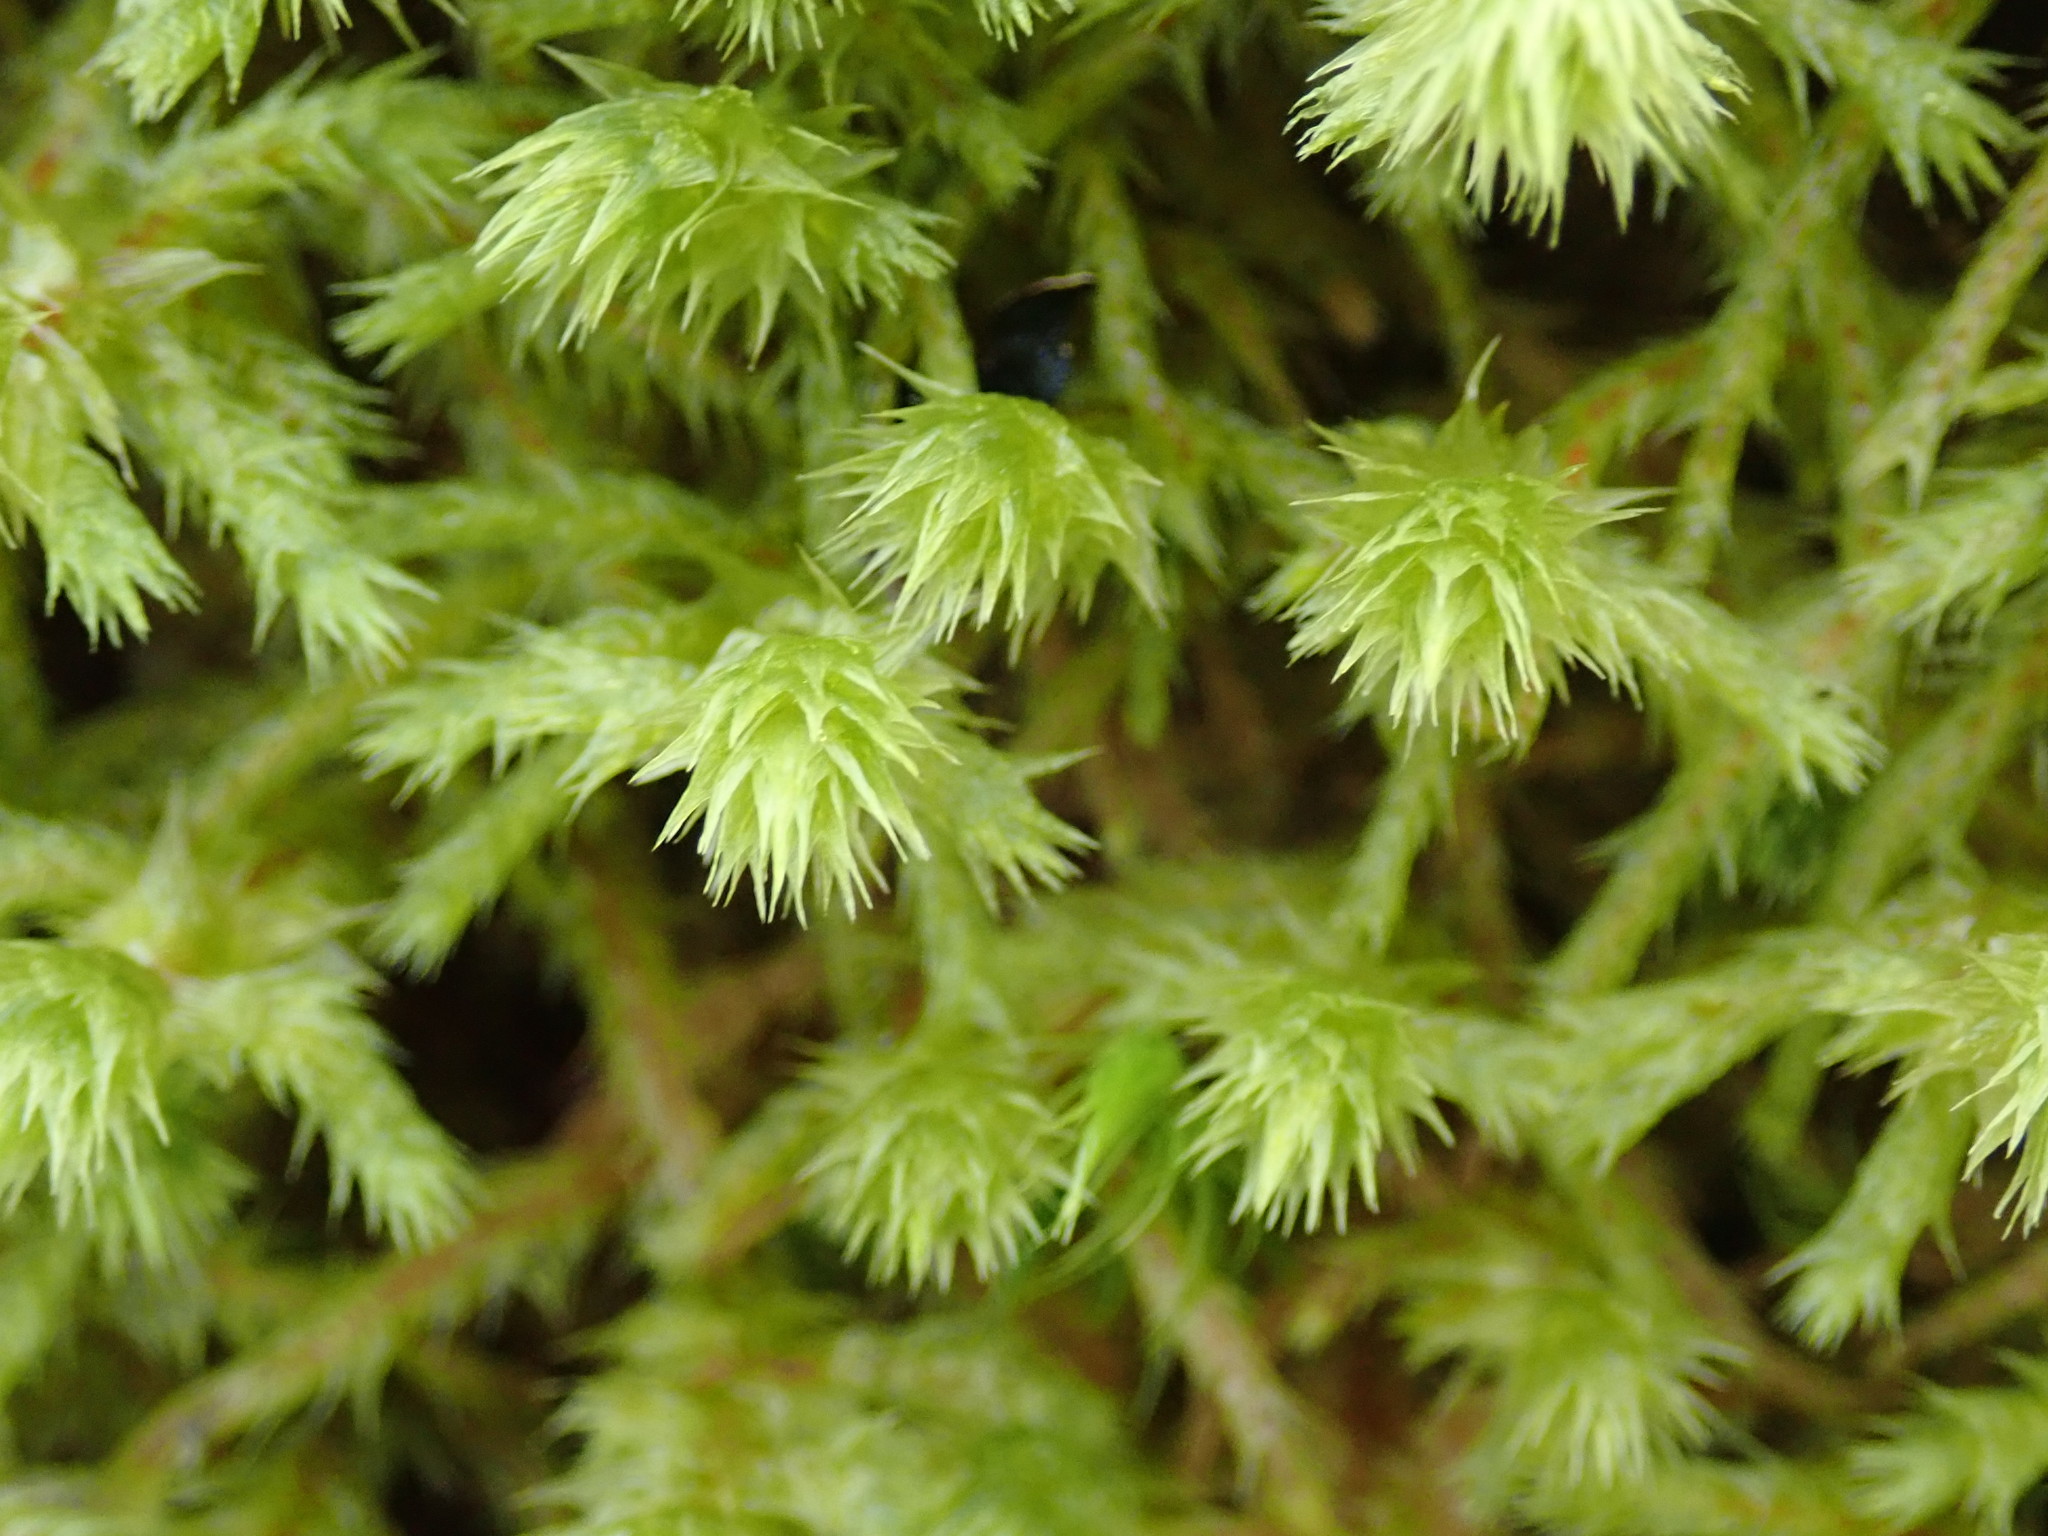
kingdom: Plantae
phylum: Bryophyta
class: Bryopsida
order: Hypnales
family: Hylocomiaceae
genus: Hylocomiadelphus
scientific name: Hylocomiadelphus triquetrus
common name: Rough goose neck moss
